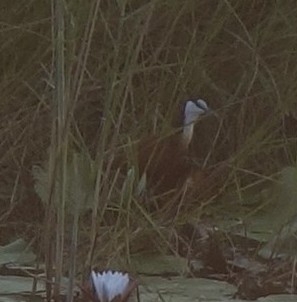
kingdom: Animalia
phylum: Chordata
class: Aves
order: Charadriiformes
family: Jacanidae
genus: Actophilornis
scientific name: Actophilornis africanus
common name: African jacana
